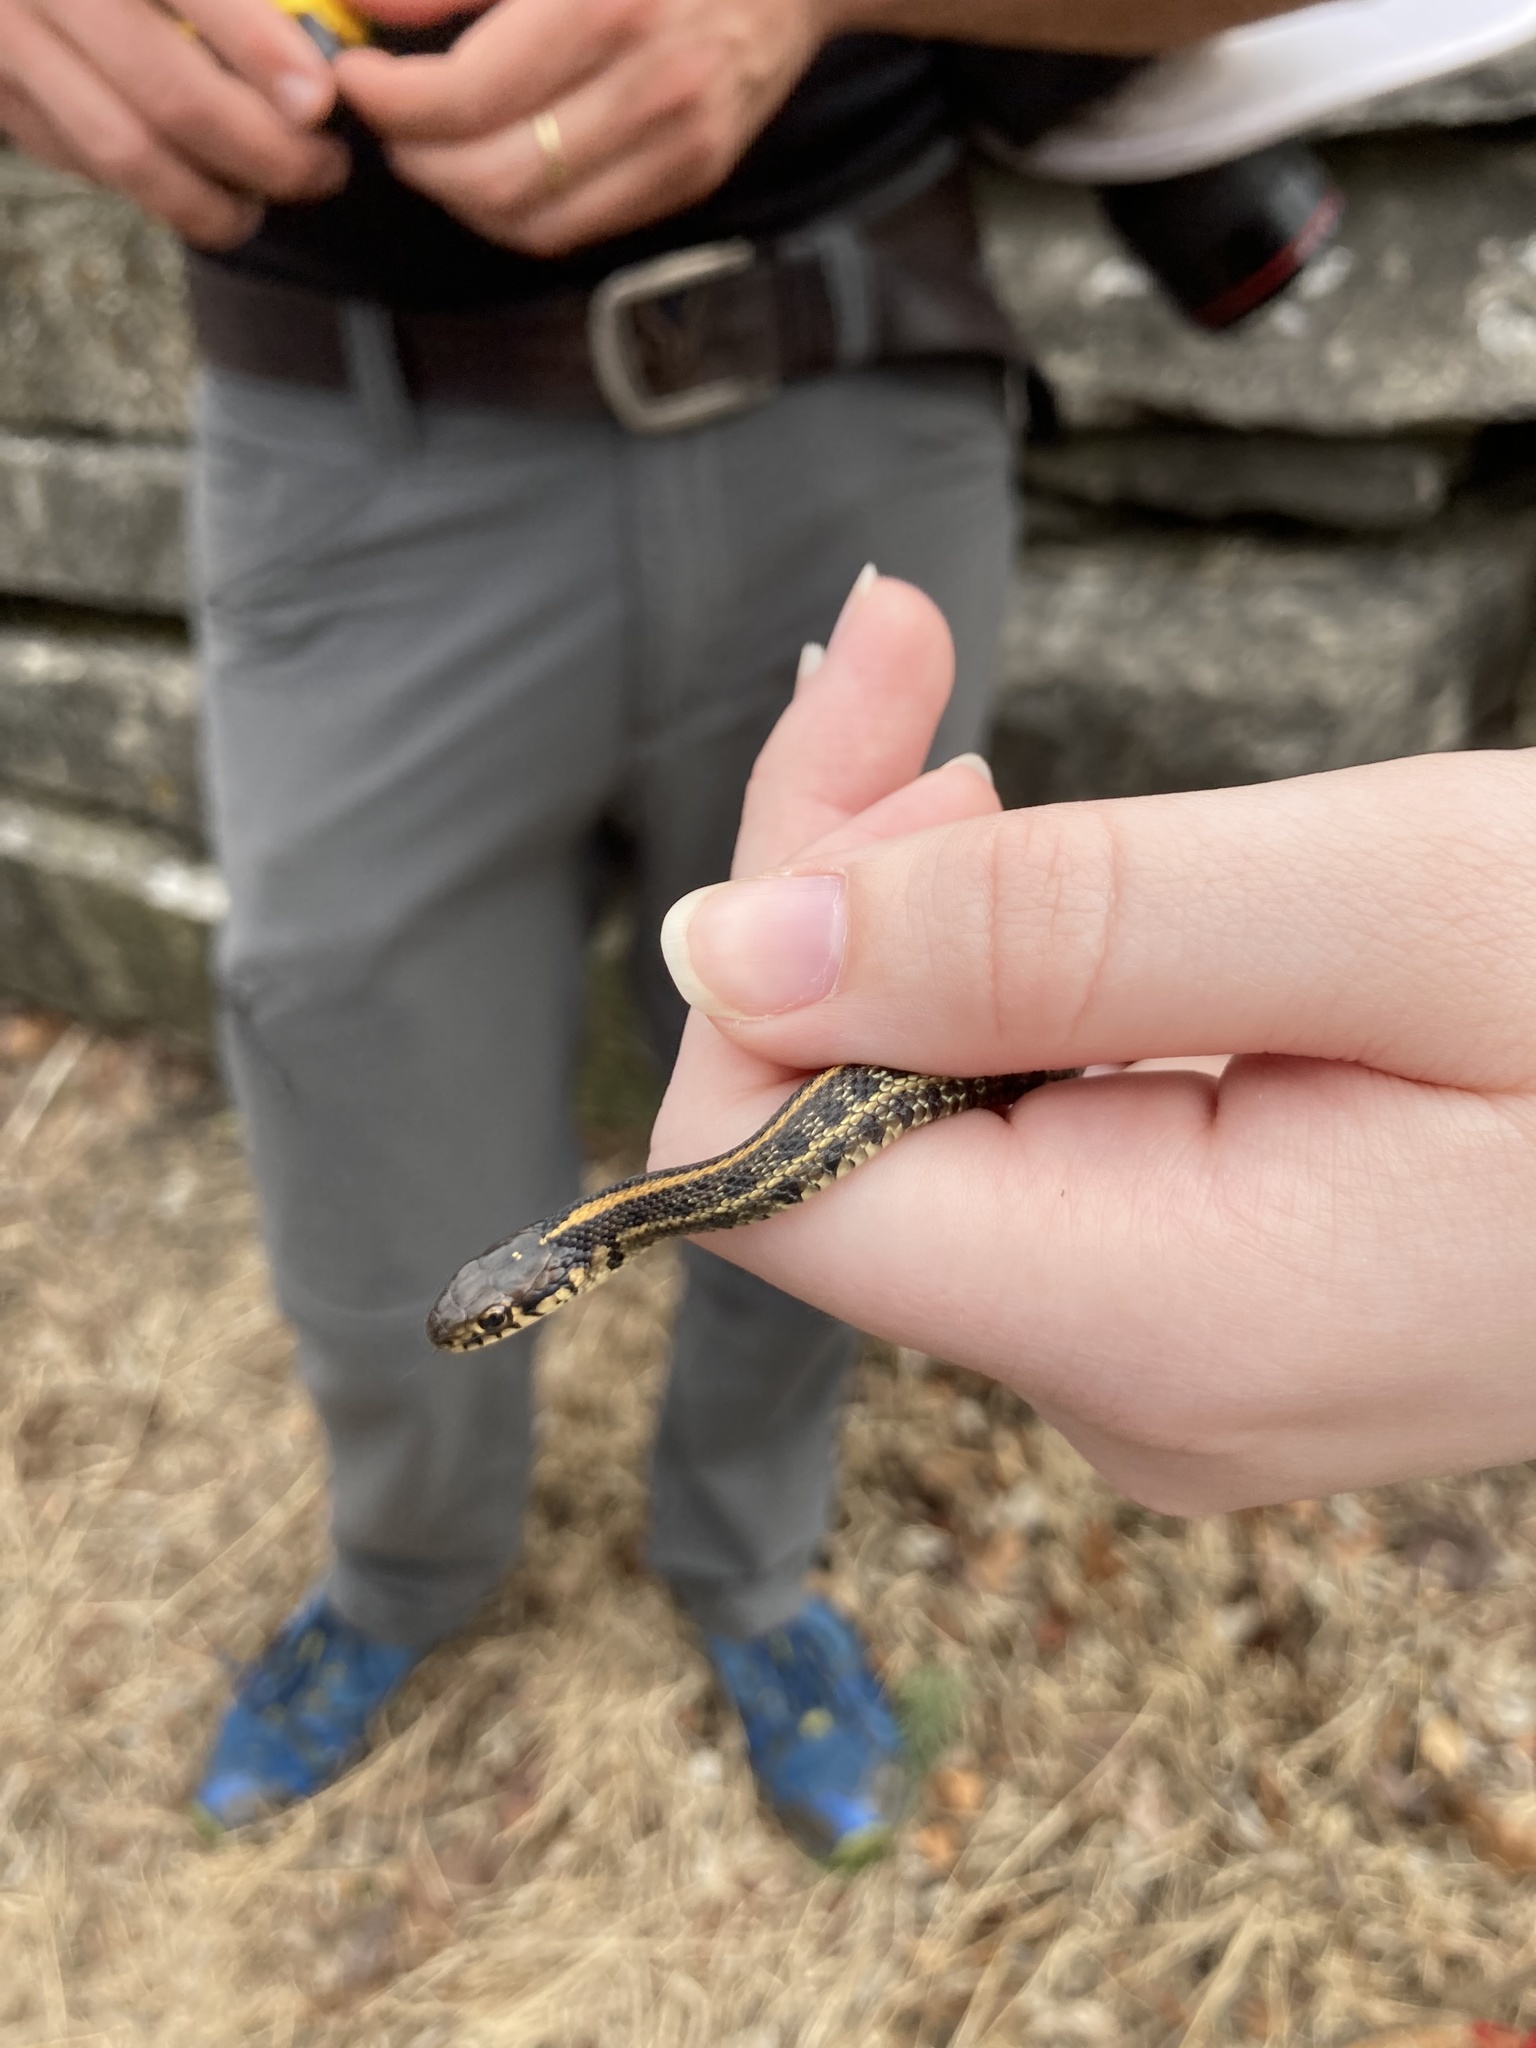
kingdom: Animalia
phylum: Chordata
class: Squamata
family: Colubridae
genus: Thamnophis
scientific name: Thamnophis radix
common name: Plains garter snake
